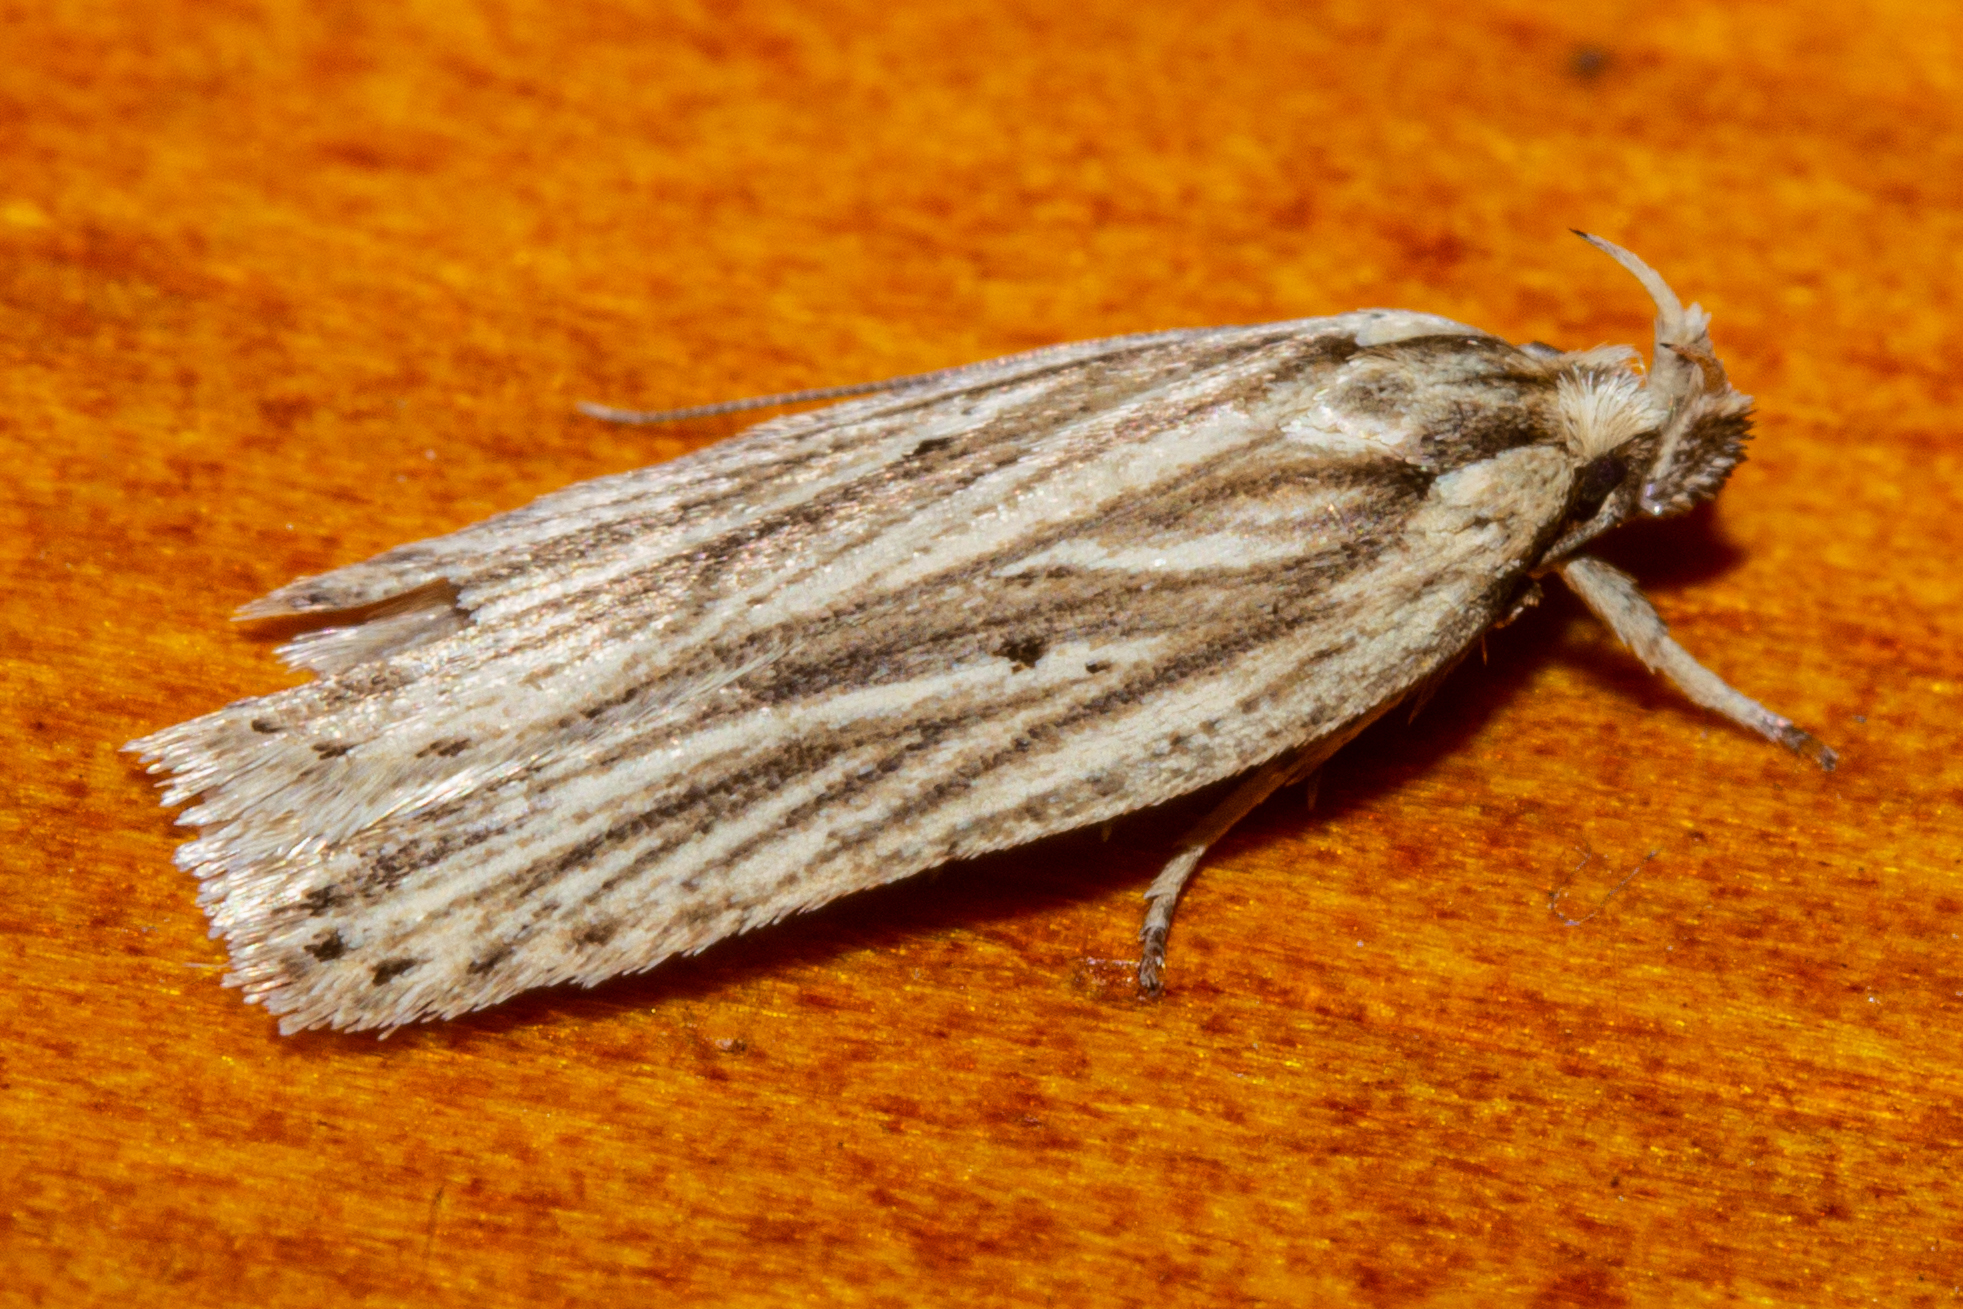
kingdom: Animalia
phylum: Arthropoda
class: Insecta
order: Lepidoptera
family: Depressariidae
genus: Agonopterix
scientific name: Agonopterix
